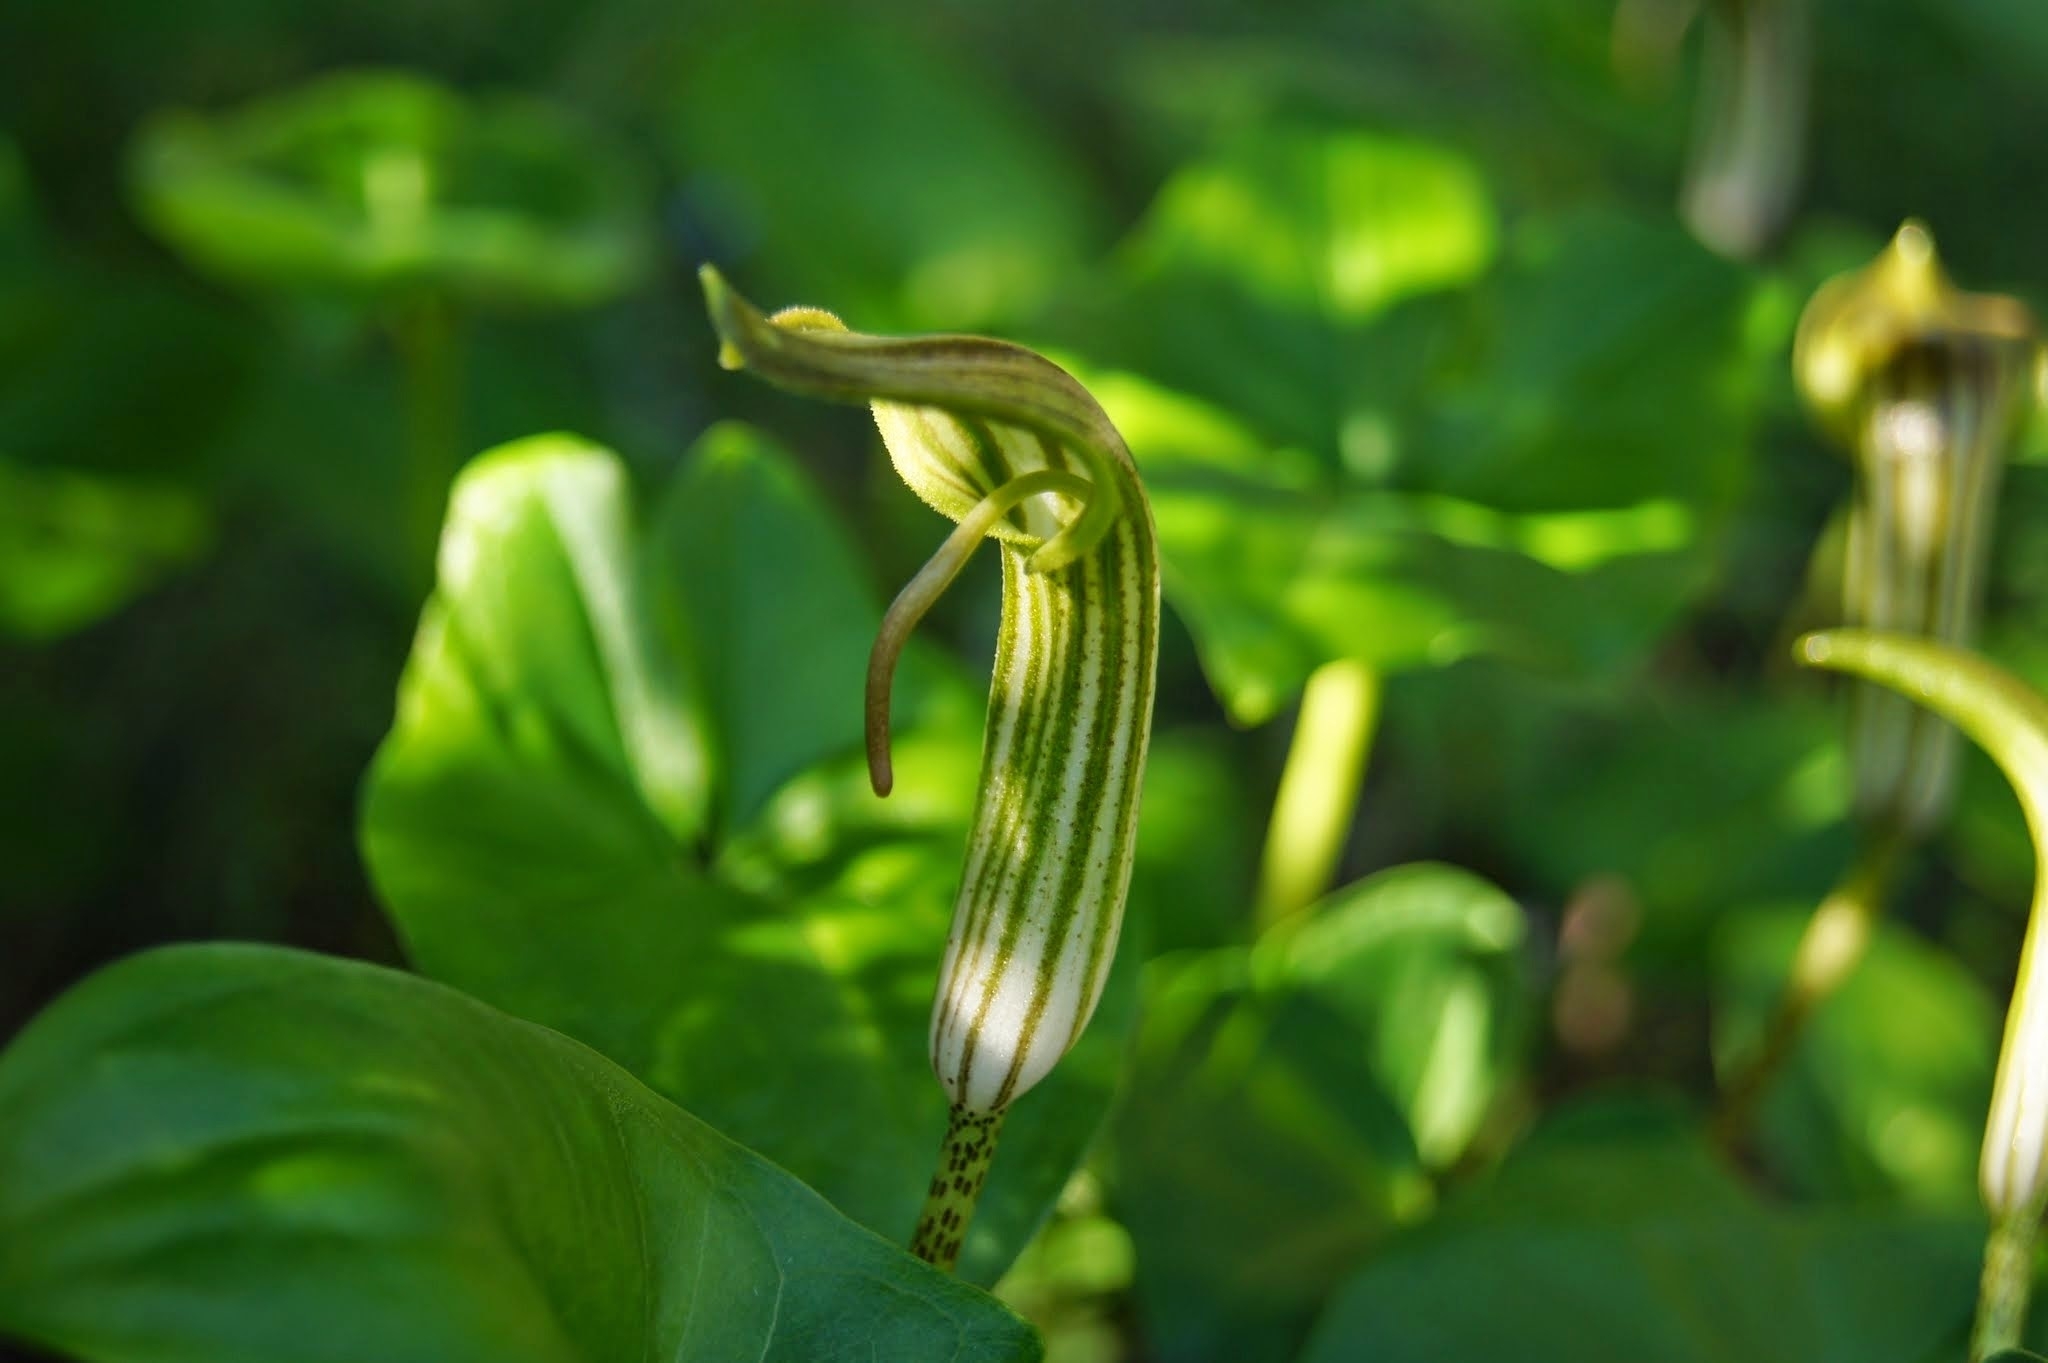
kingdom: Plantae
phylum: Tracheophyta
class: Liliopsida
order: Alismatales
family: Araceae
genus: Arisarum
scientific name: Arisarum vulgare
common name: Common arisarum
